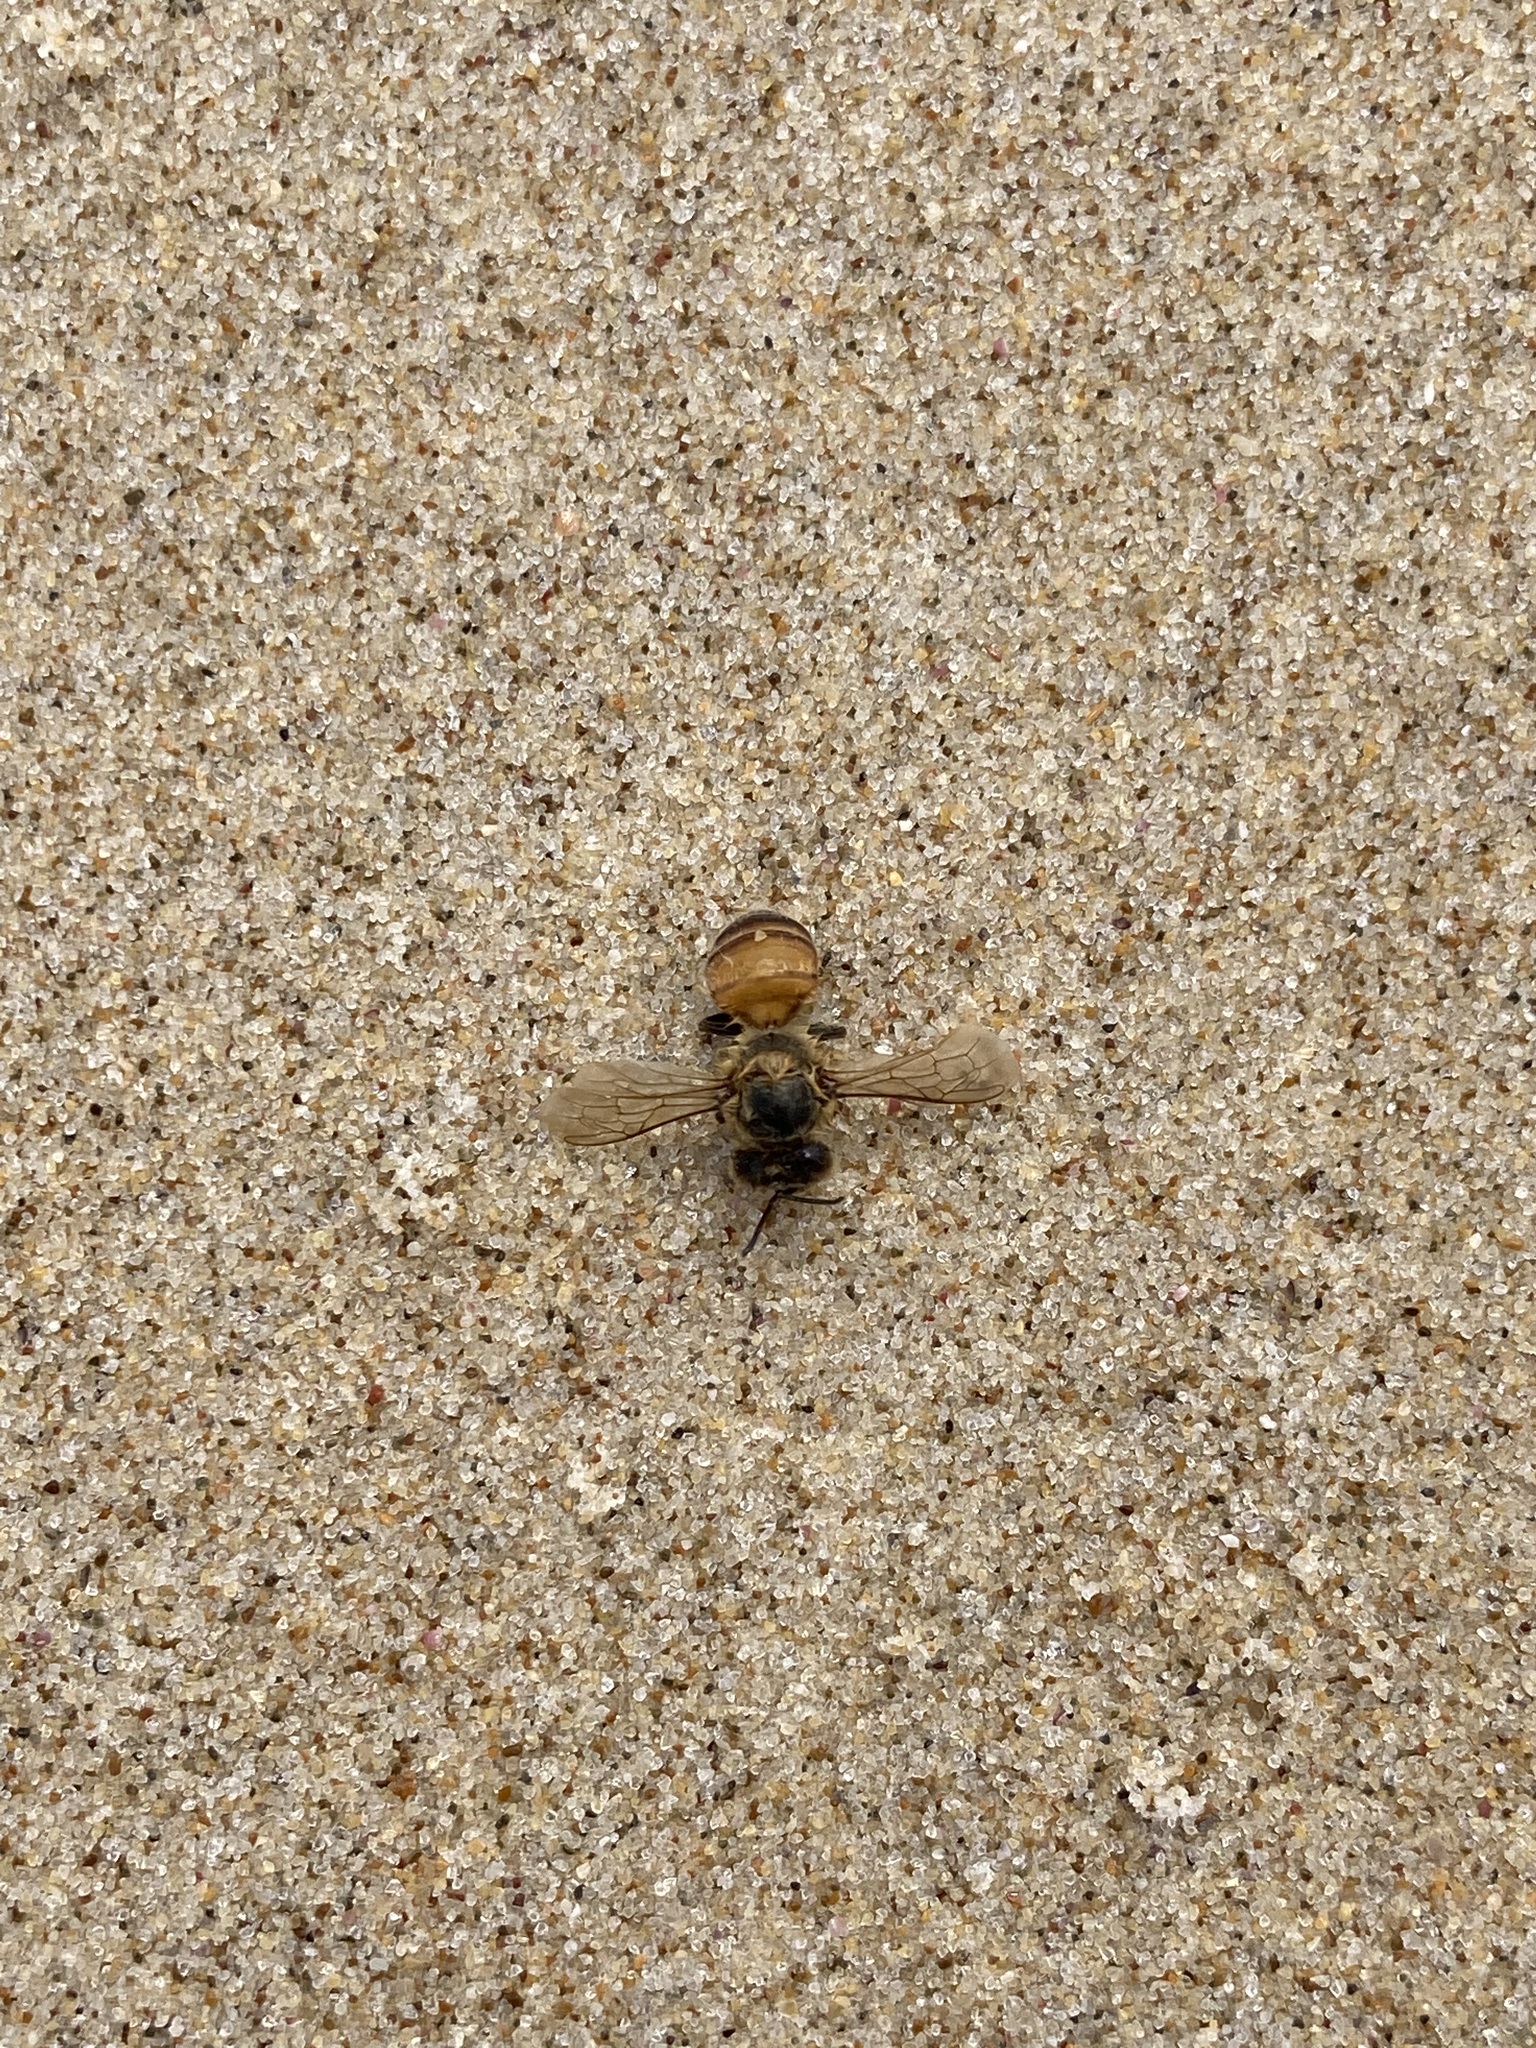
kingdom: Animalia
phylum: Arthropoda
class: Insecta
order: Hymenoptera
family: Apidae
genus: Apis
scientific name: Apis mellifera
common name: Honey bee
